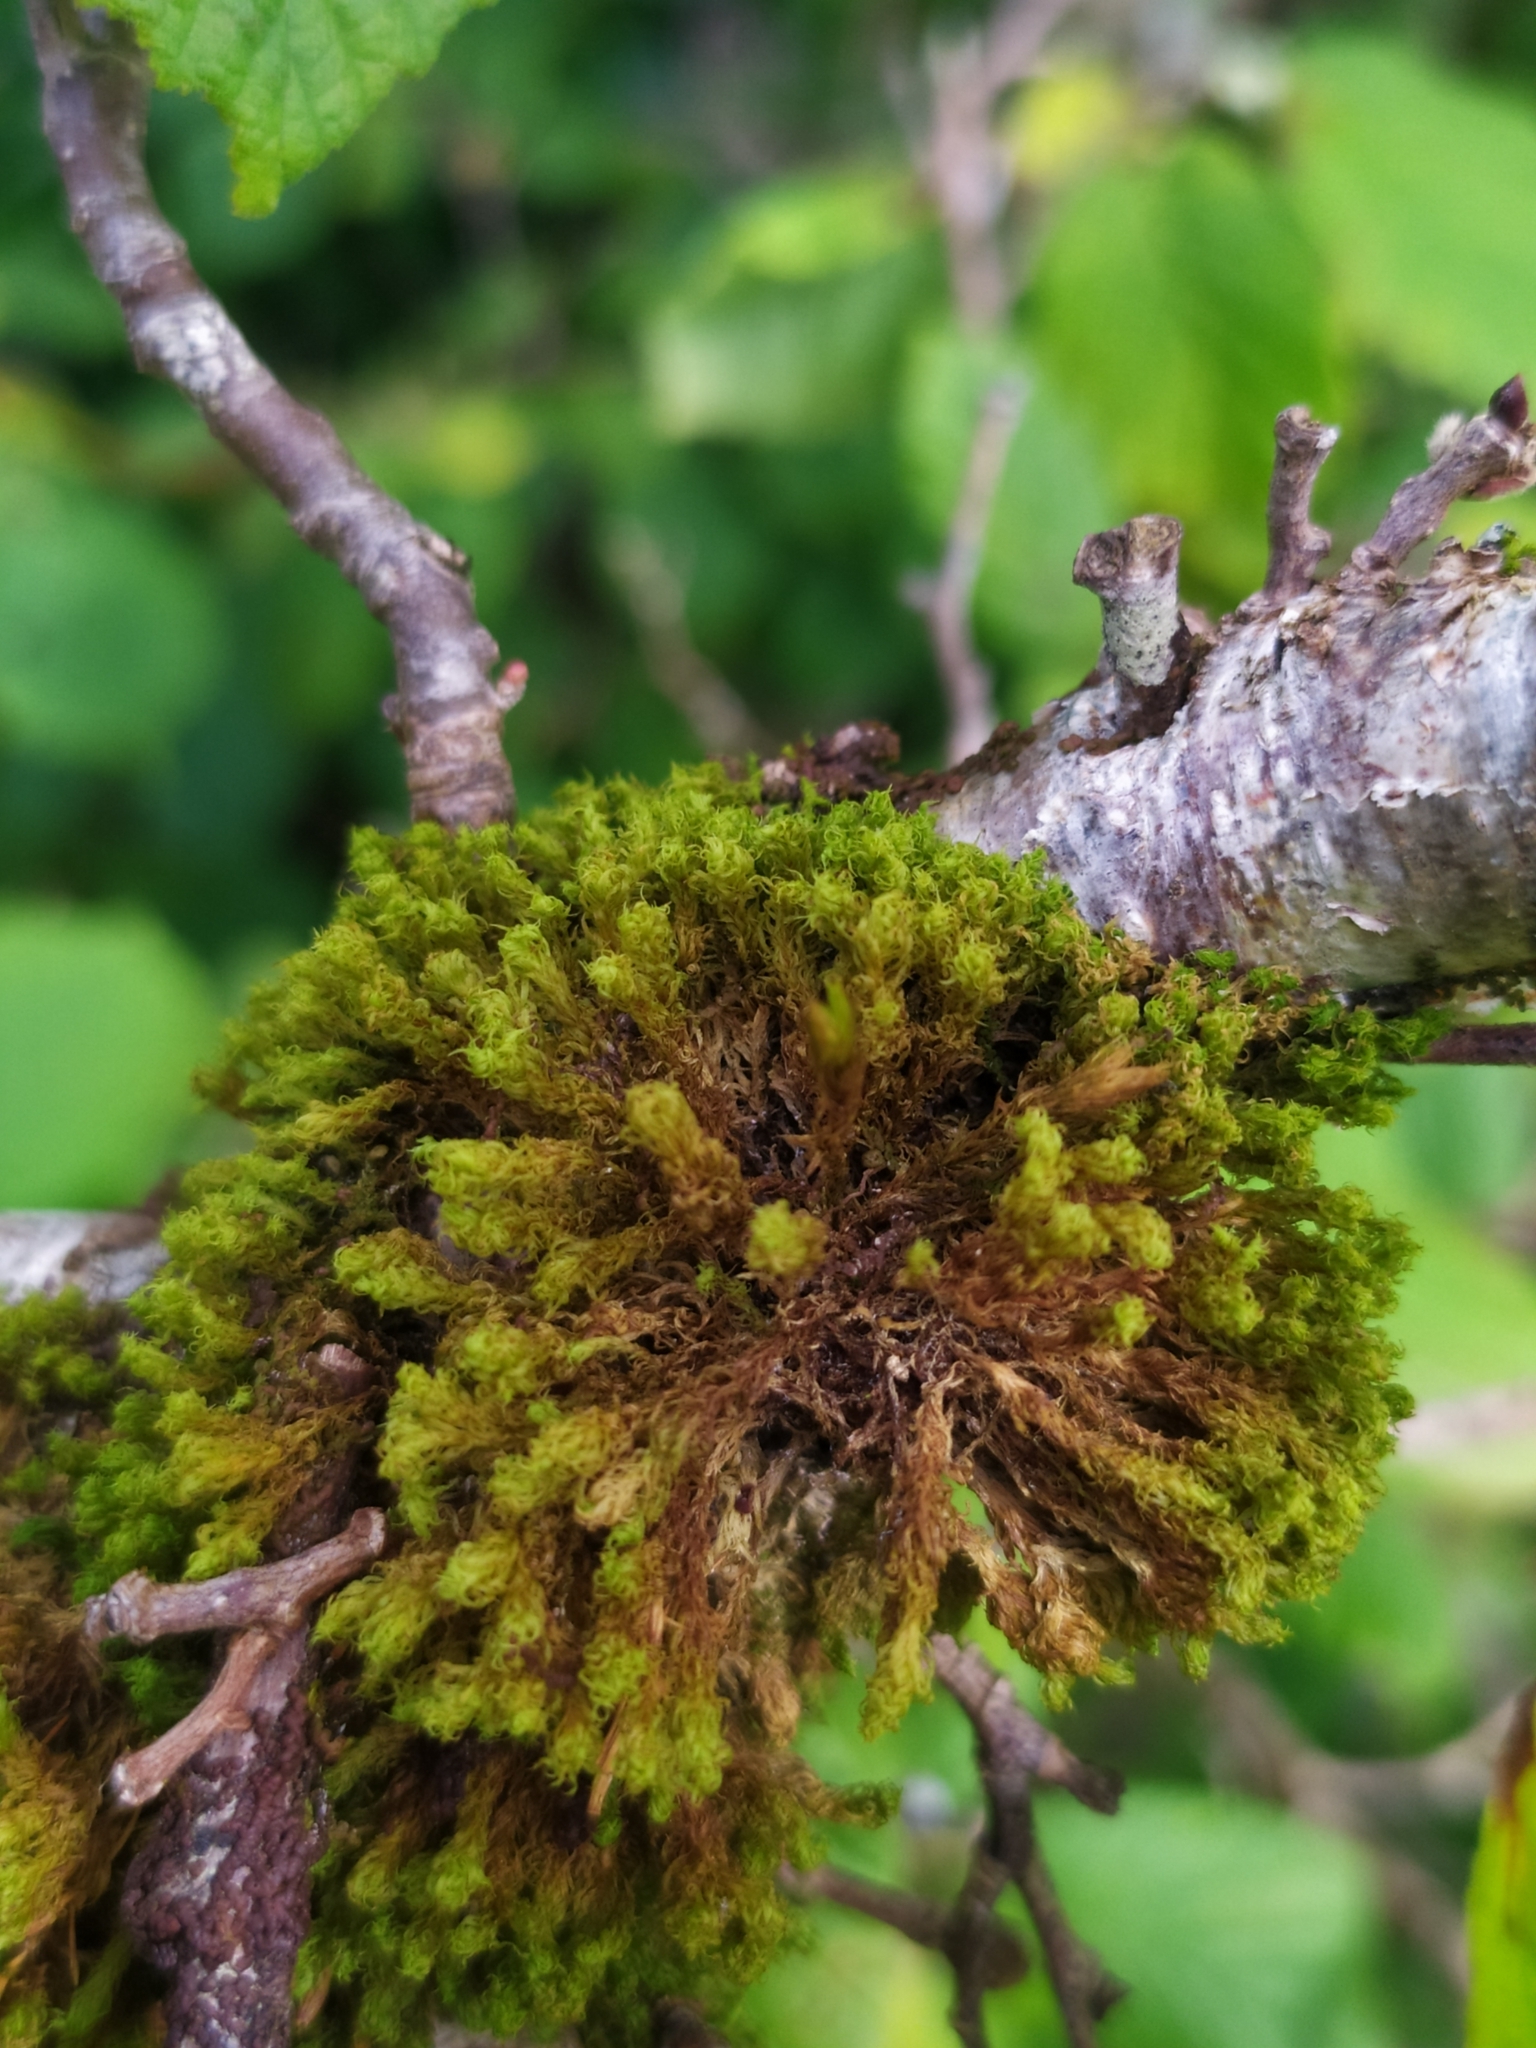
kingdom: Plantae
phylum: Bryophyta
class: Bryopsida
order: Orthotrichales
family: Orthotrichaceae
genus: Plenogemma
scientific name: Plenogemma phyllantha
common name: Frizzled pincushion
